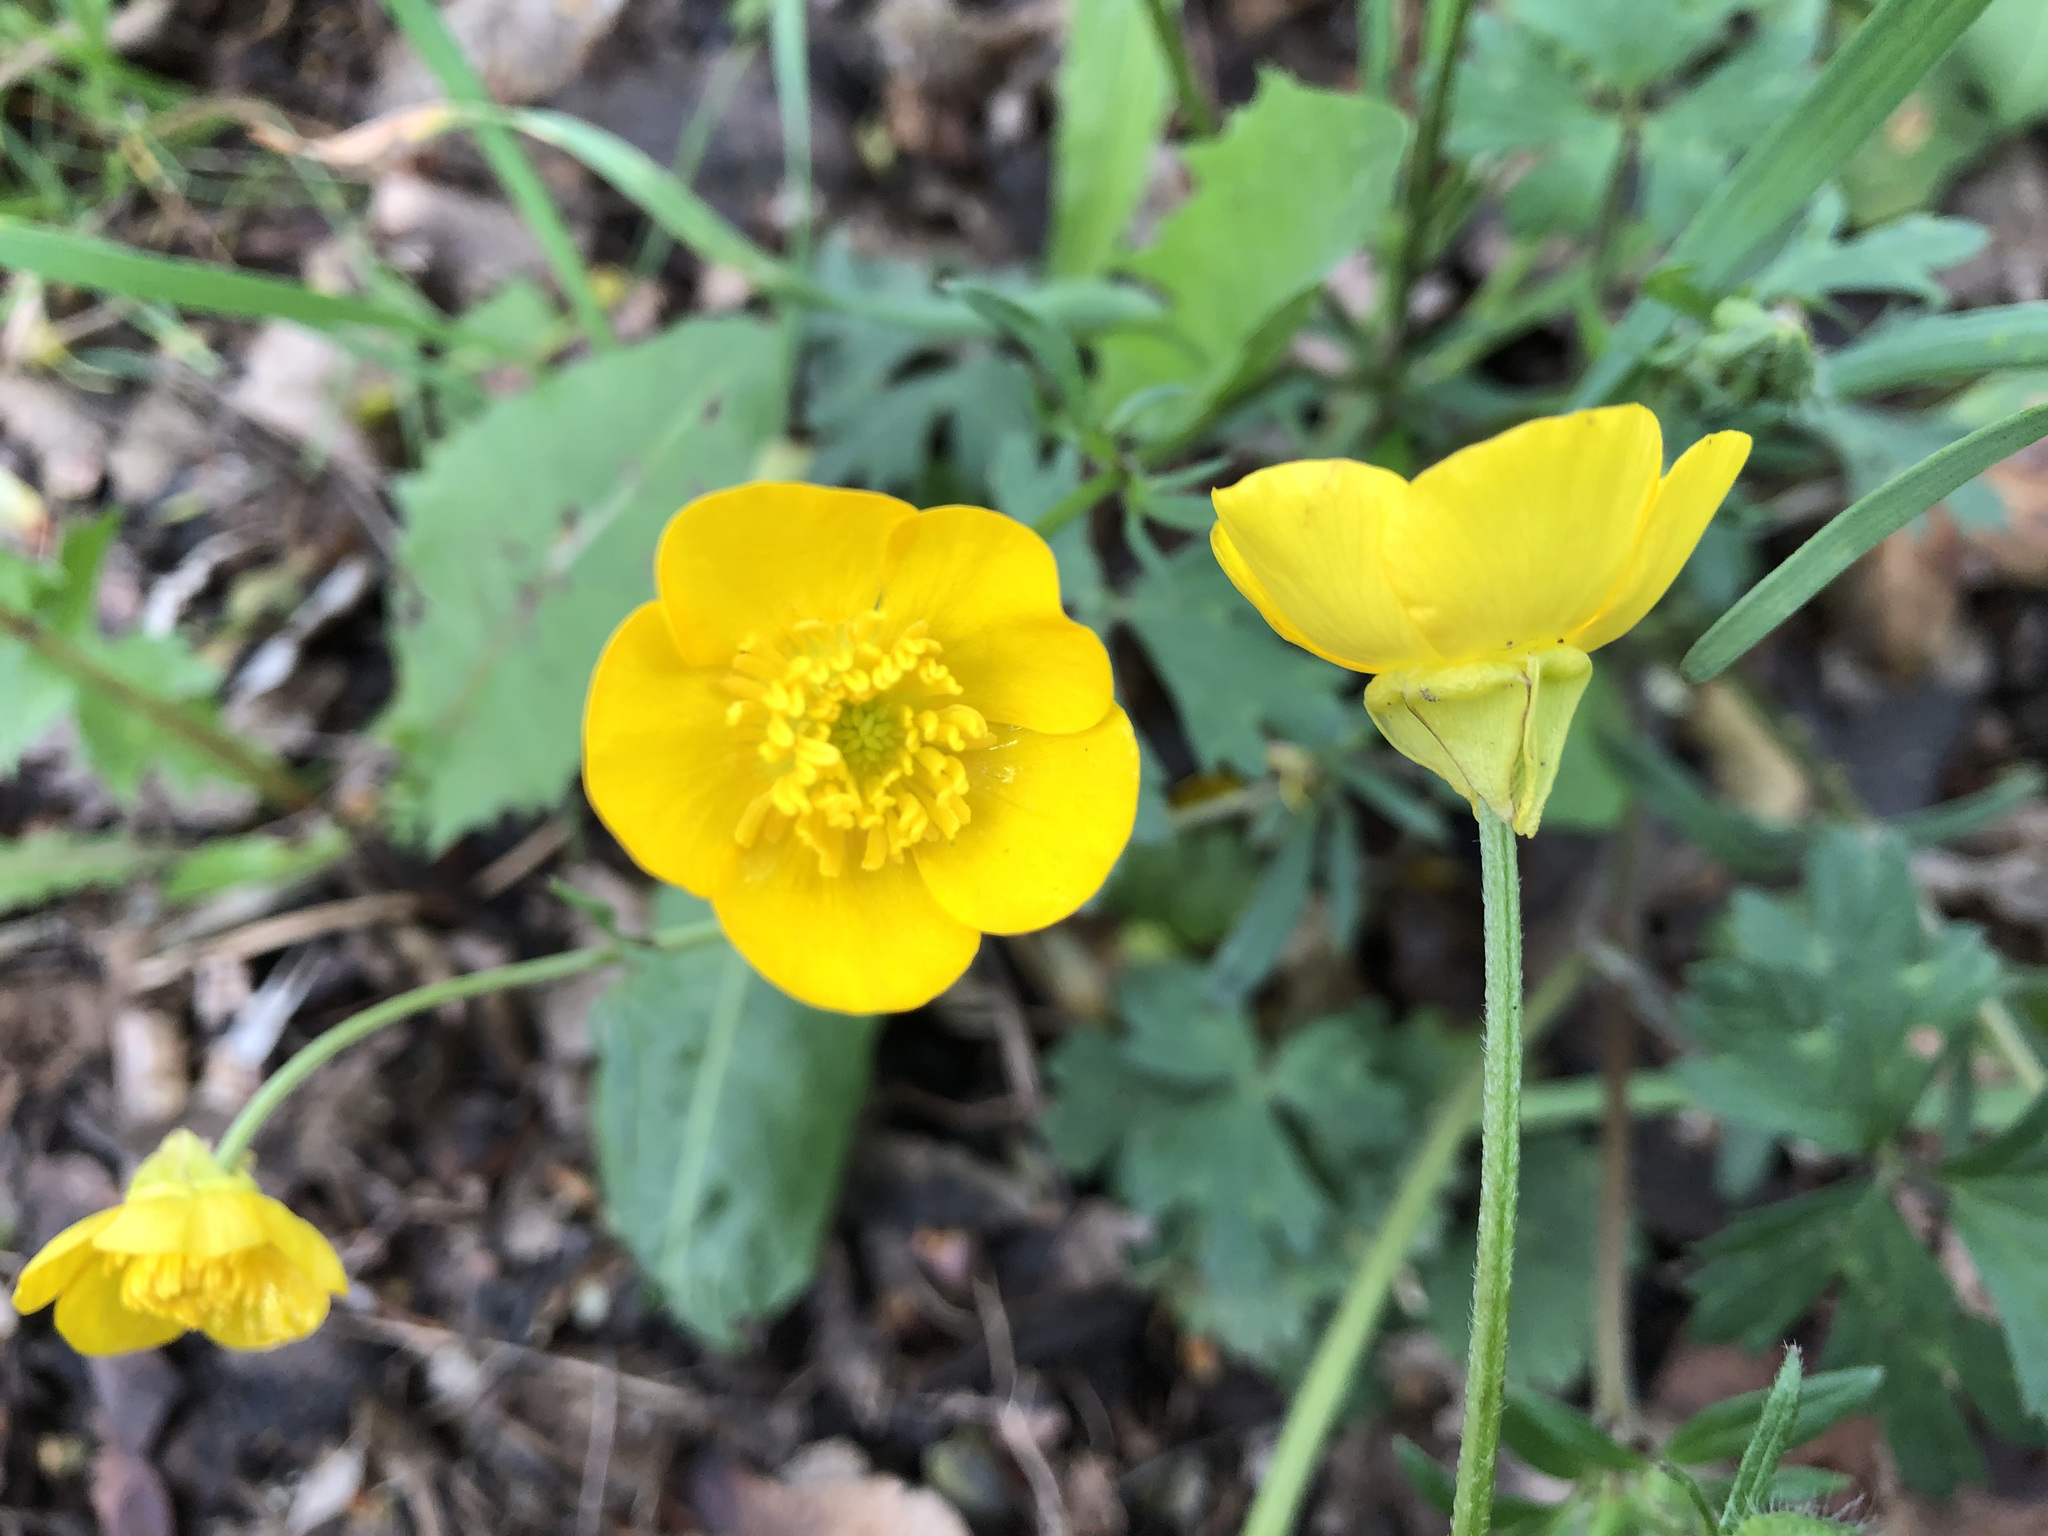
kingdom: Plantae
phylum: Tracheophyta
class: Magnoliopsida
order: Ranunculales
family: Ranunculaceae
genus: Ranunculus
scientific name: Ranunculus bulbosus
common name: Bulbous buttercup
